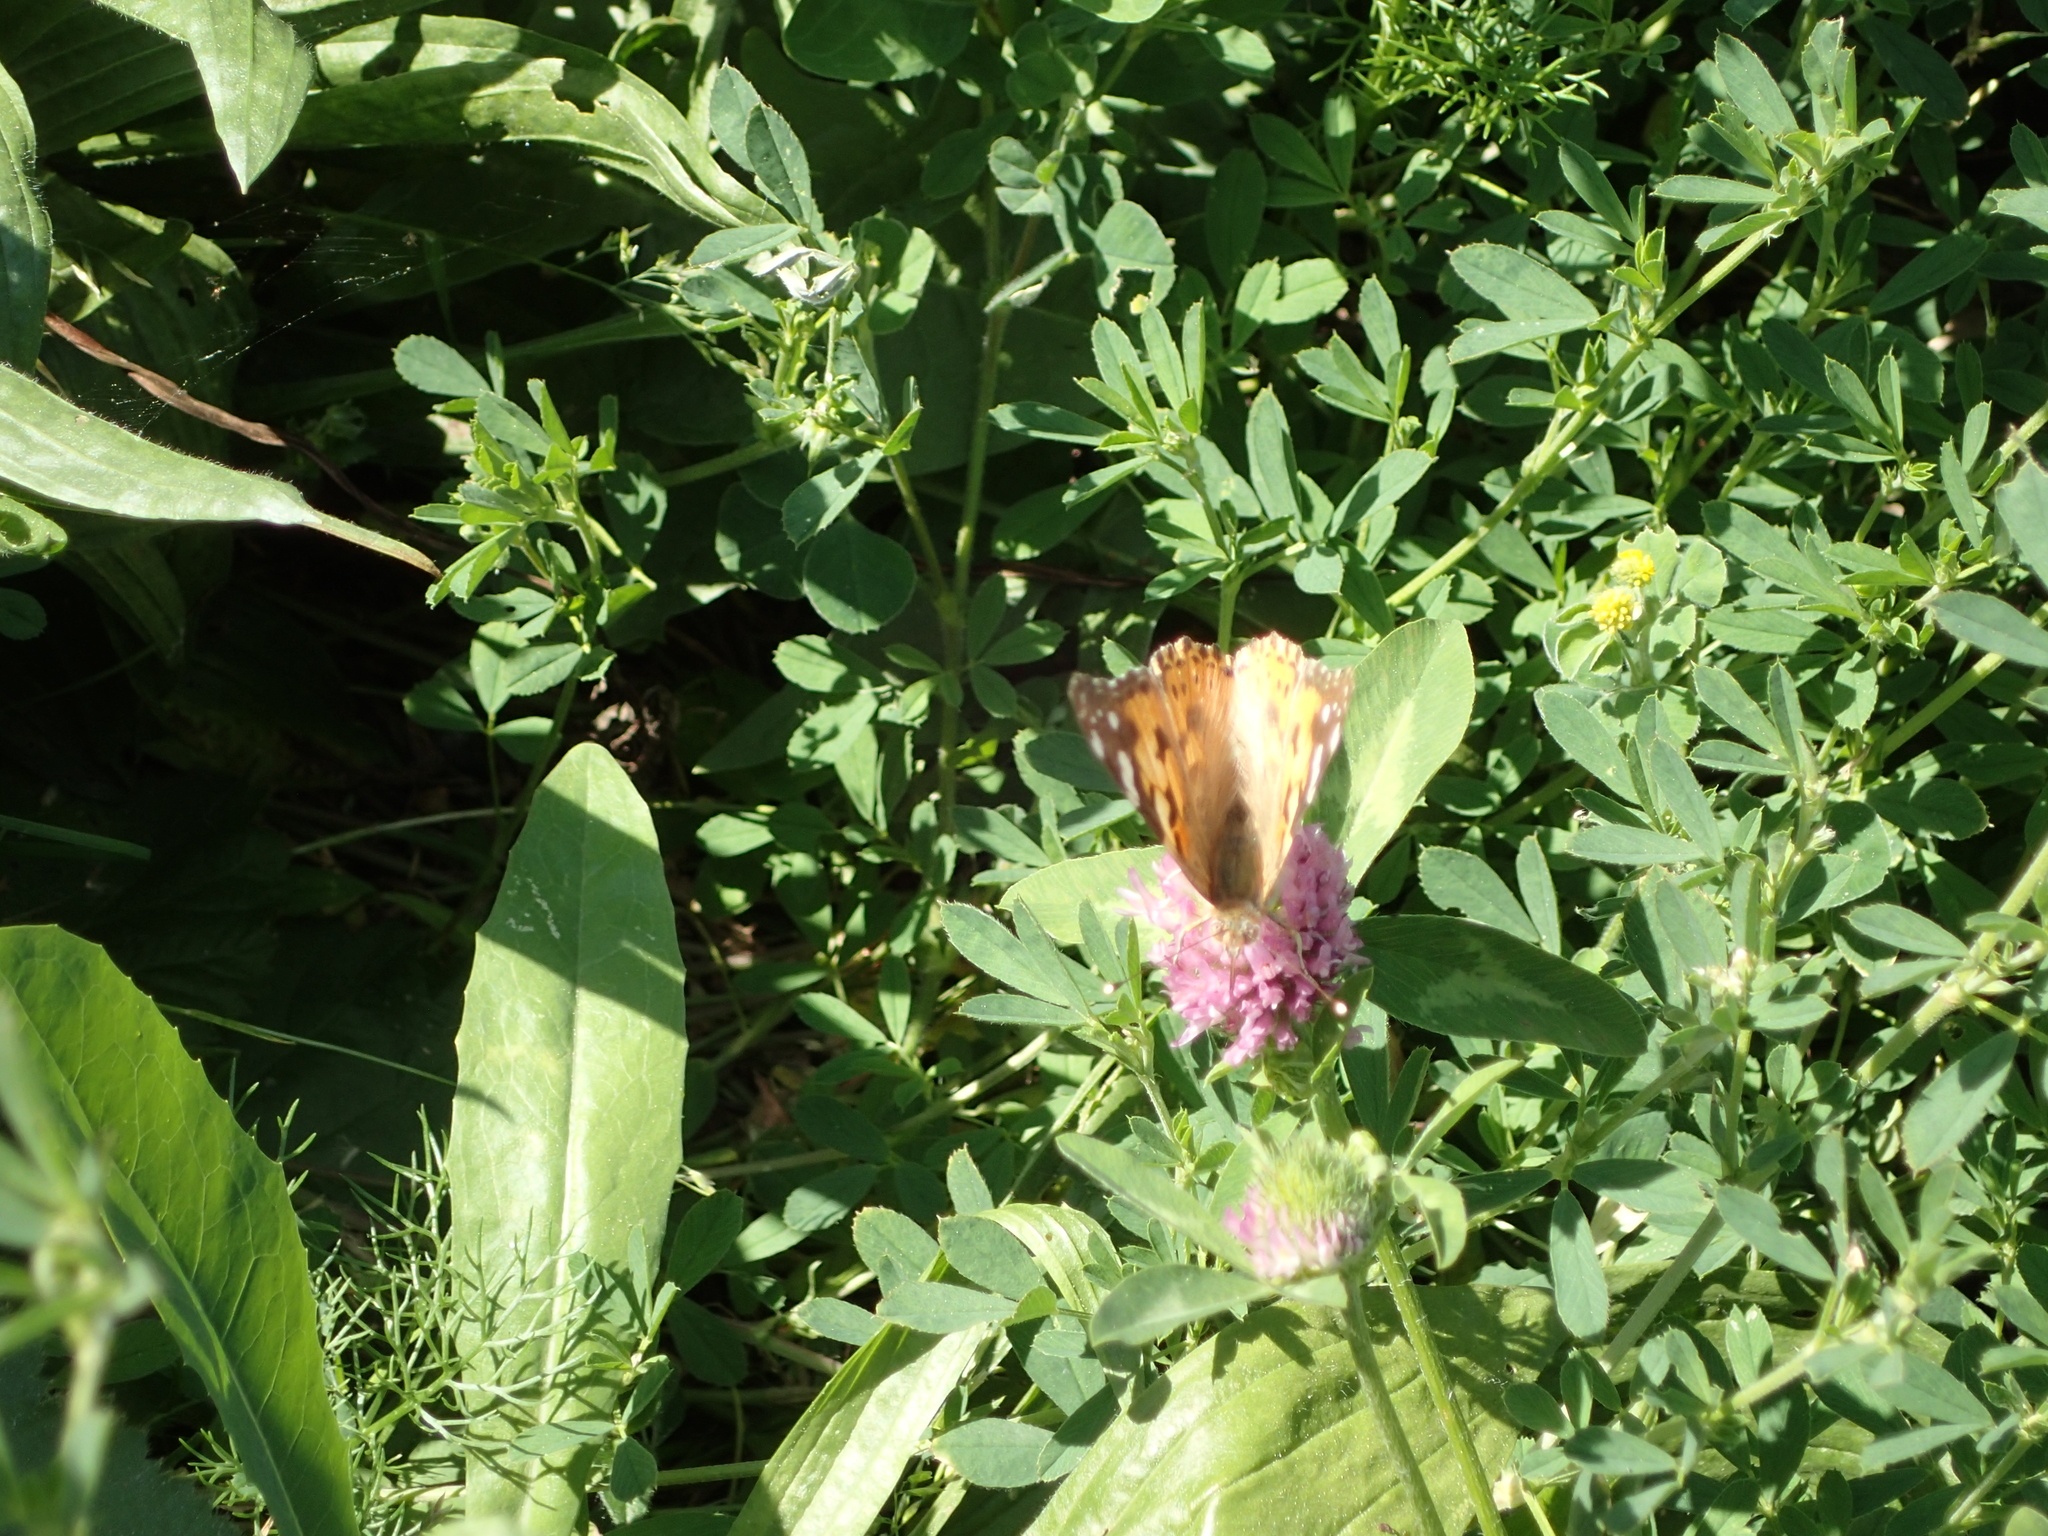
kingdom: Animalia
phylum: Arthropoda
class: Insecta
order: Lepidoptera
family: Nymphalidae
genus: Vanessa
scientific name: Vanessa cardui
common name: Painted lady
